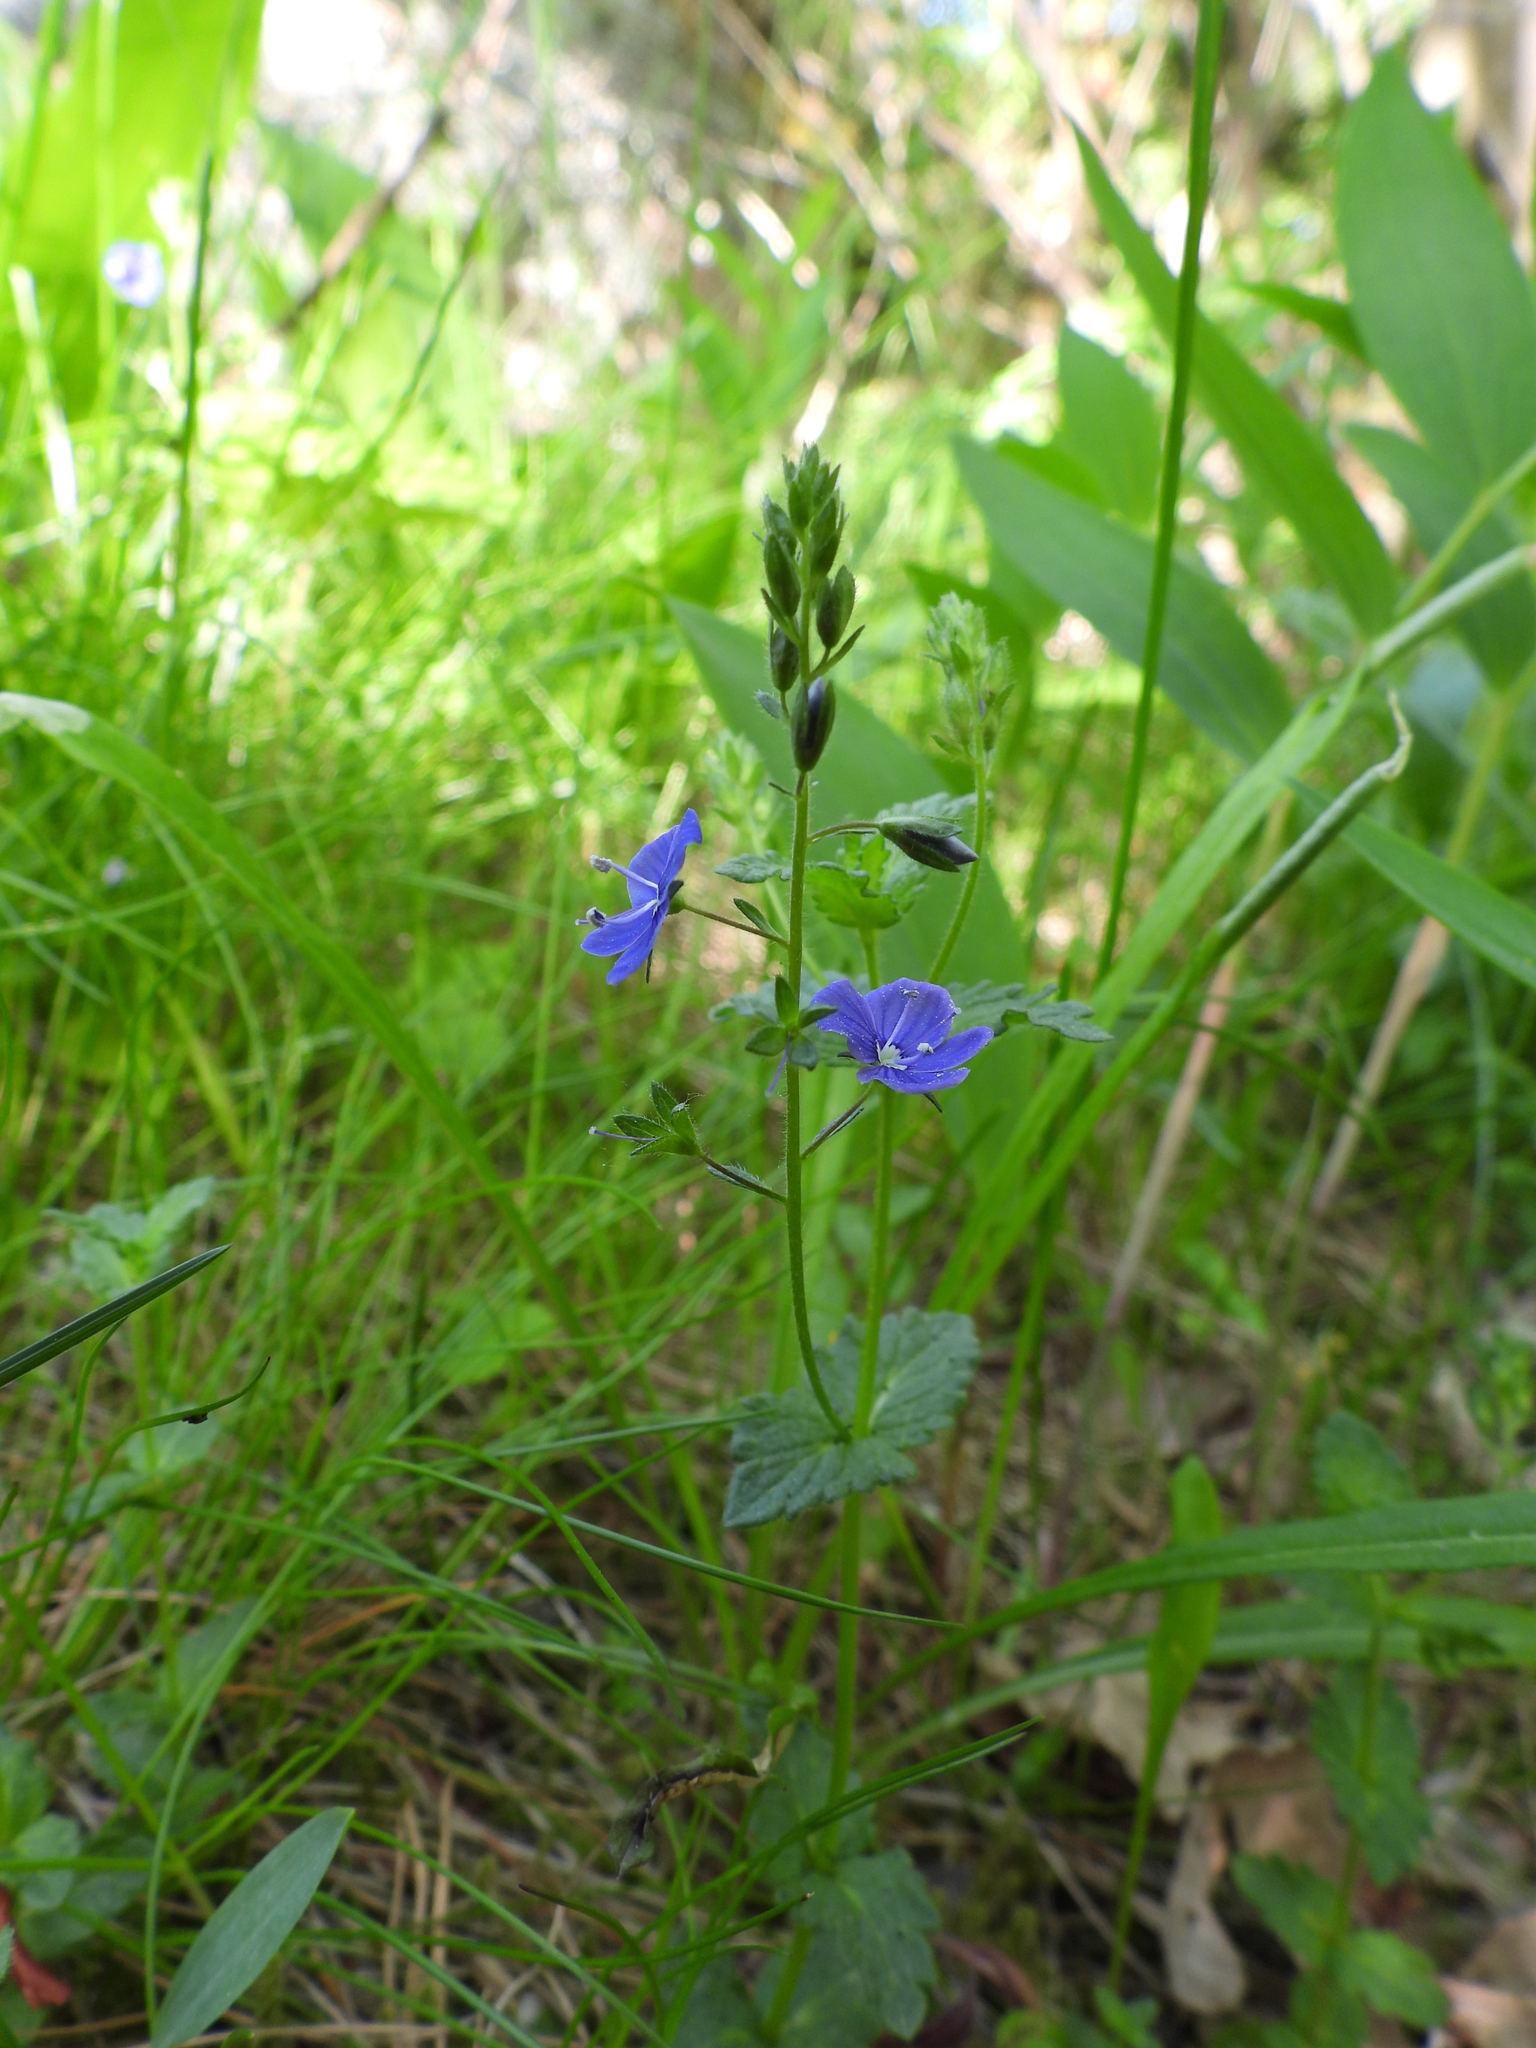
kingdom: Plantae
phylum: Tracheophyta
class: Magnoliopsida
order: Lamiales
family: Plantaginaceae
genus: Veronica
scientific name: Veronica chamaedrys
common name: Germander speedwell
